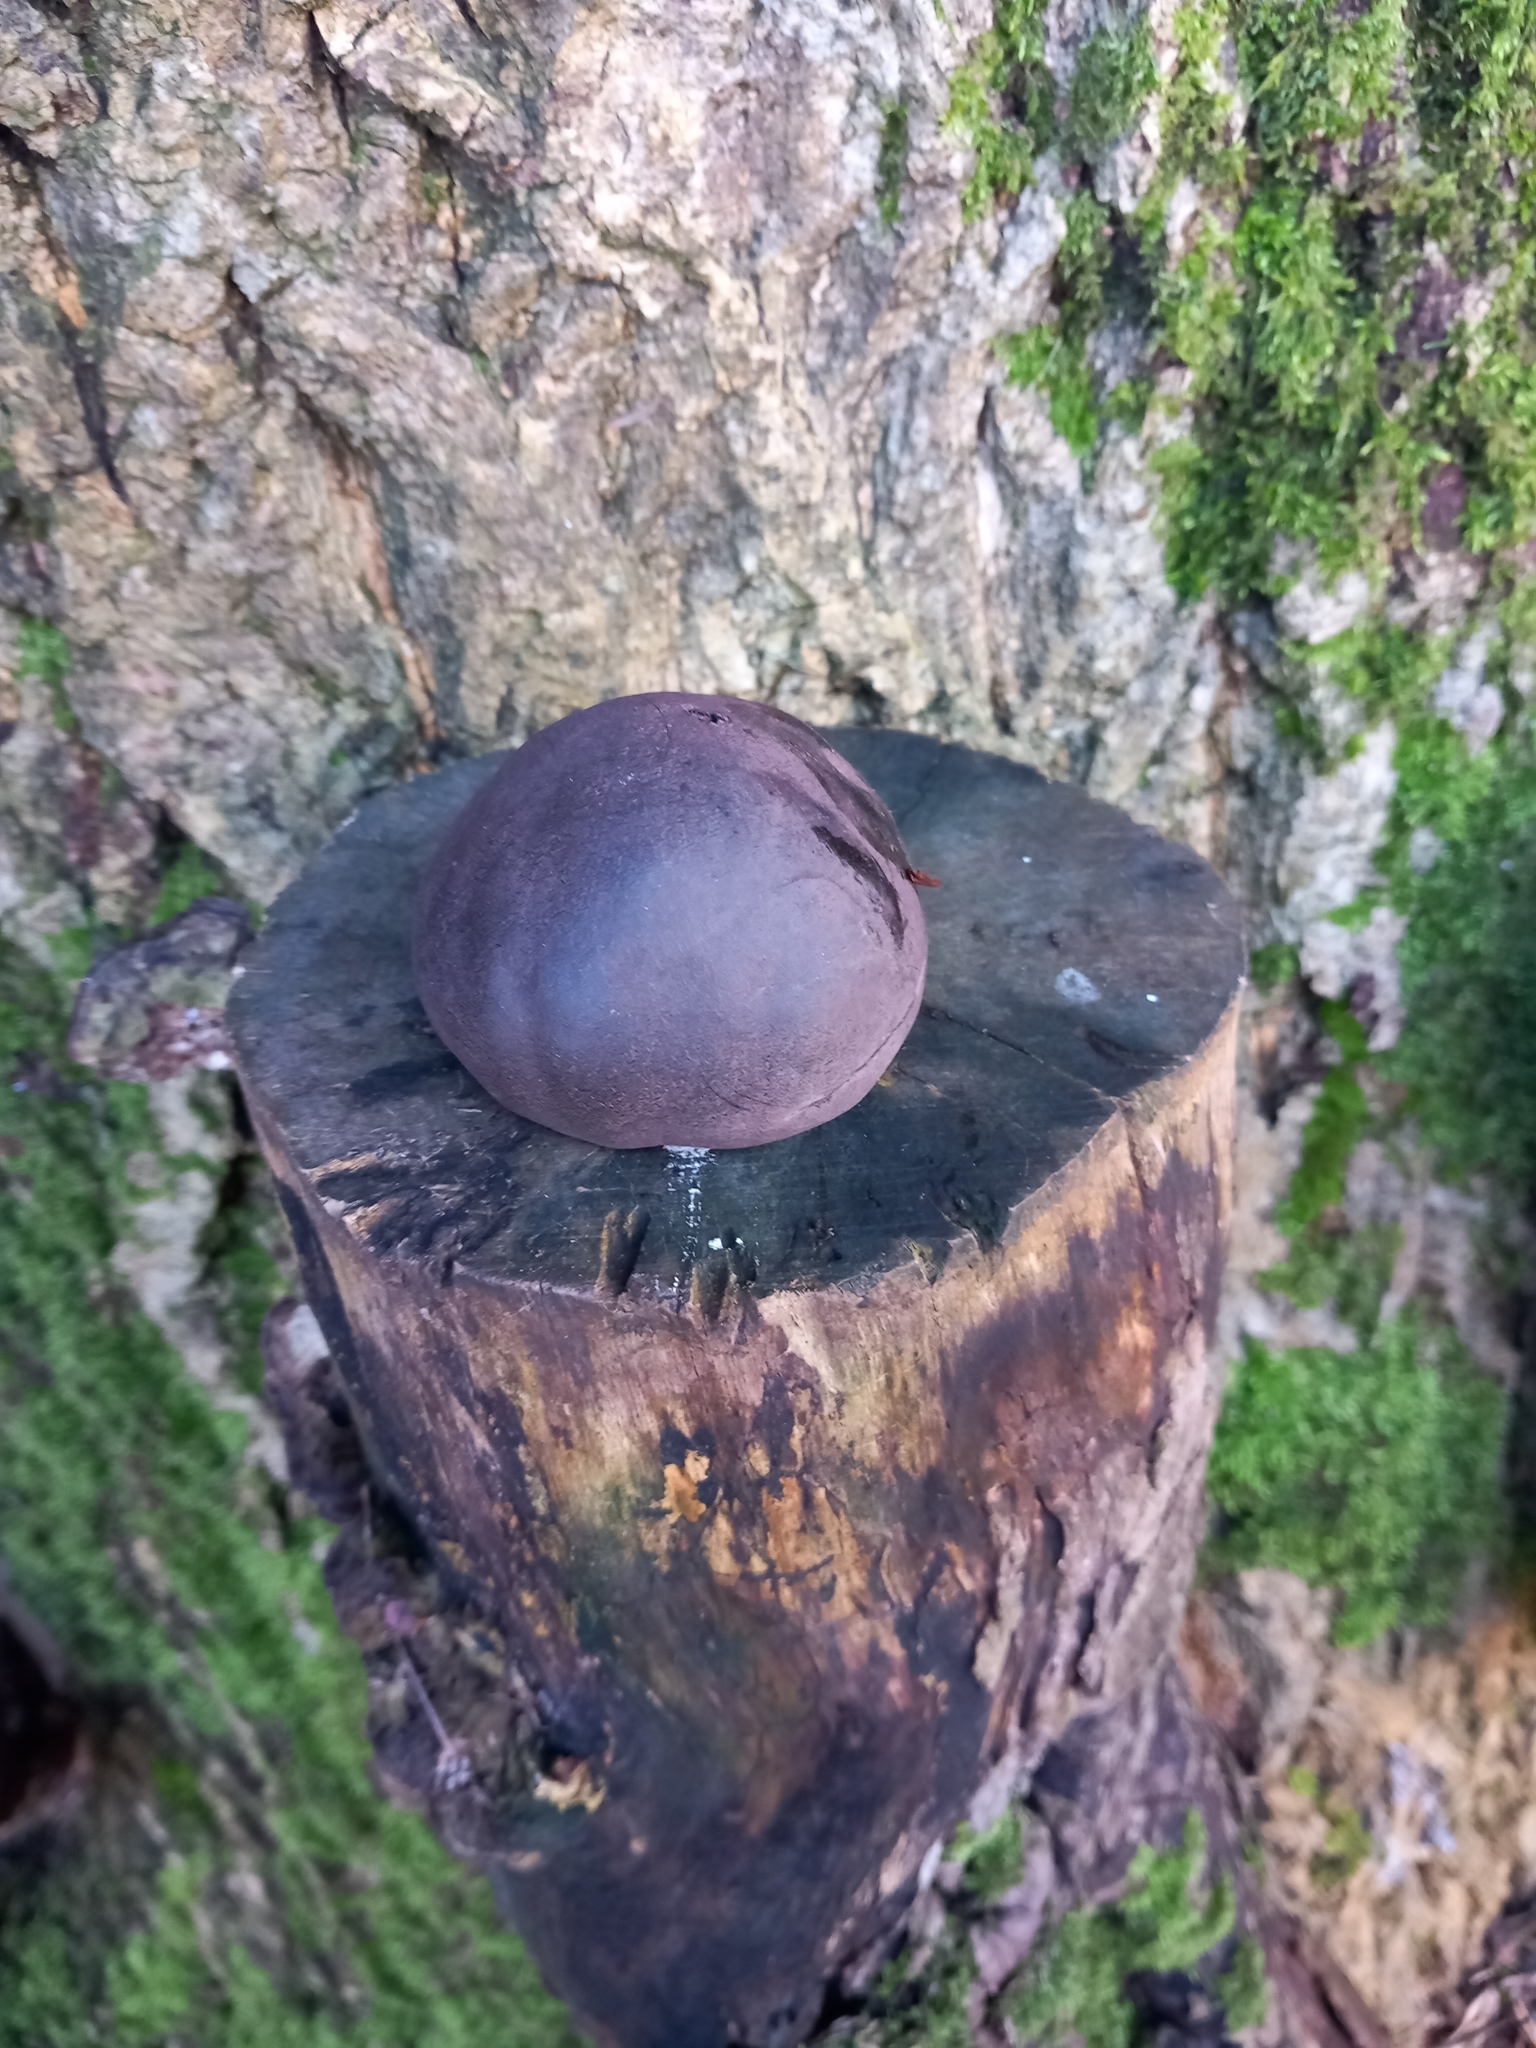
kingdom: Fungi
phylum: Ascomycota
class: Sordariomycetes
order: Xylariales
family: Hypoxylaceae
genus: Daldinia
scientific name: Daldinia concentrica
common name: Cramp balls
